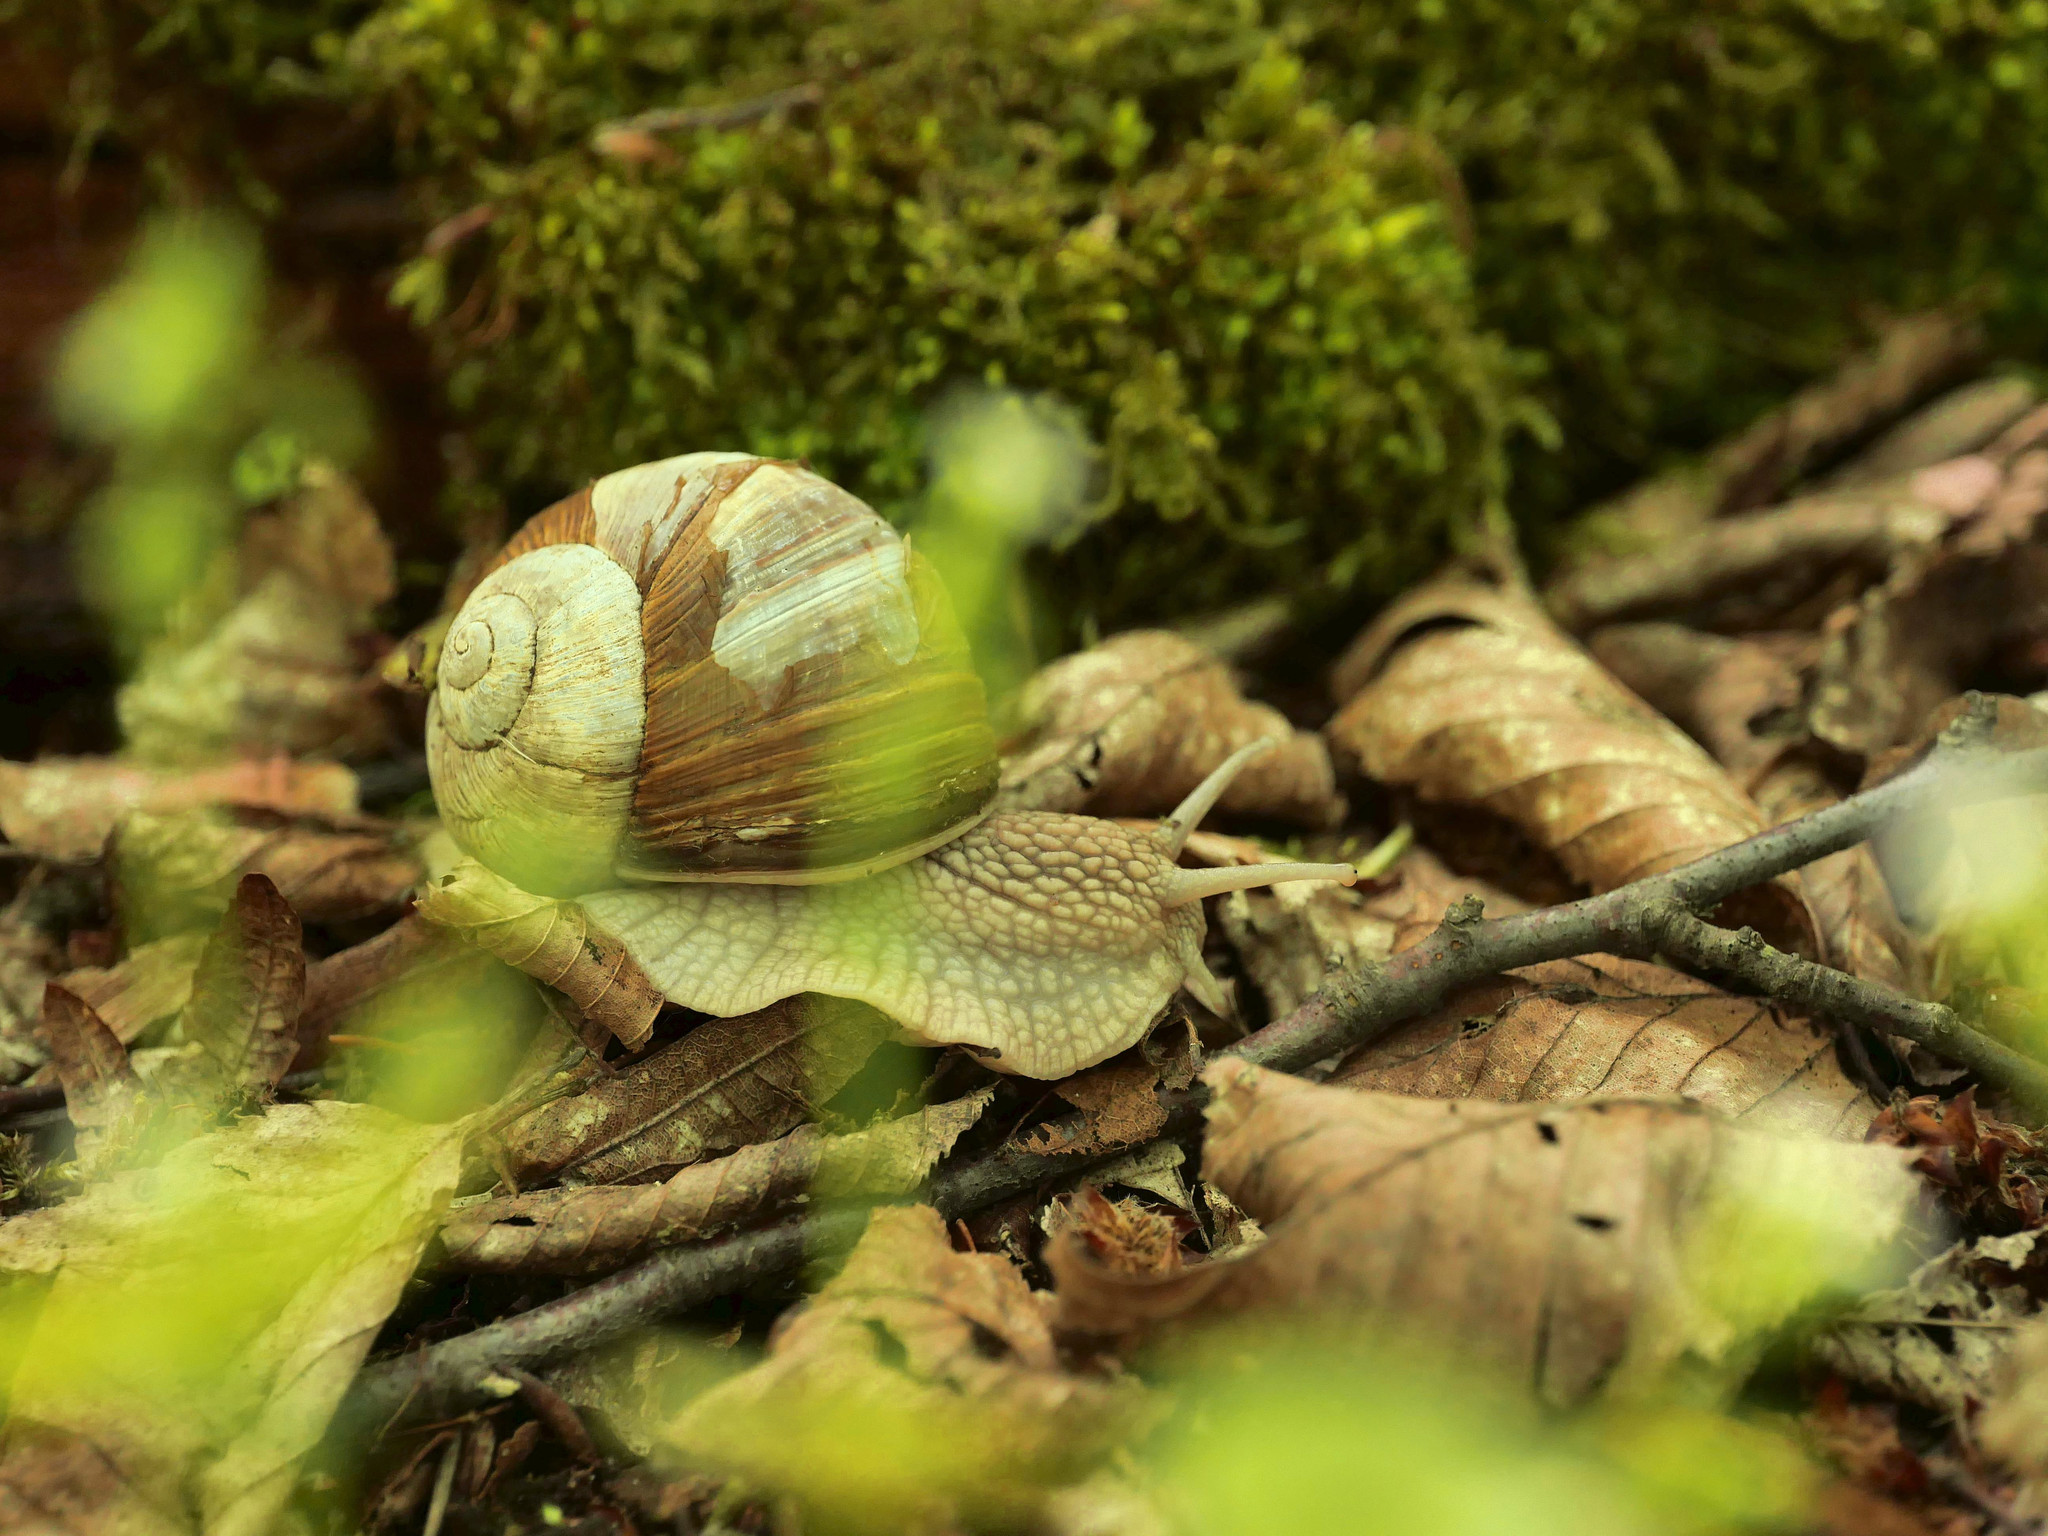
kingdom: Animalia
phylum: Mollusca
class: Gastropoda
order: Stylommatophora
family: Helicidae
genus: Helix
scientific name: Helix pomatia
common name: Roman snail
